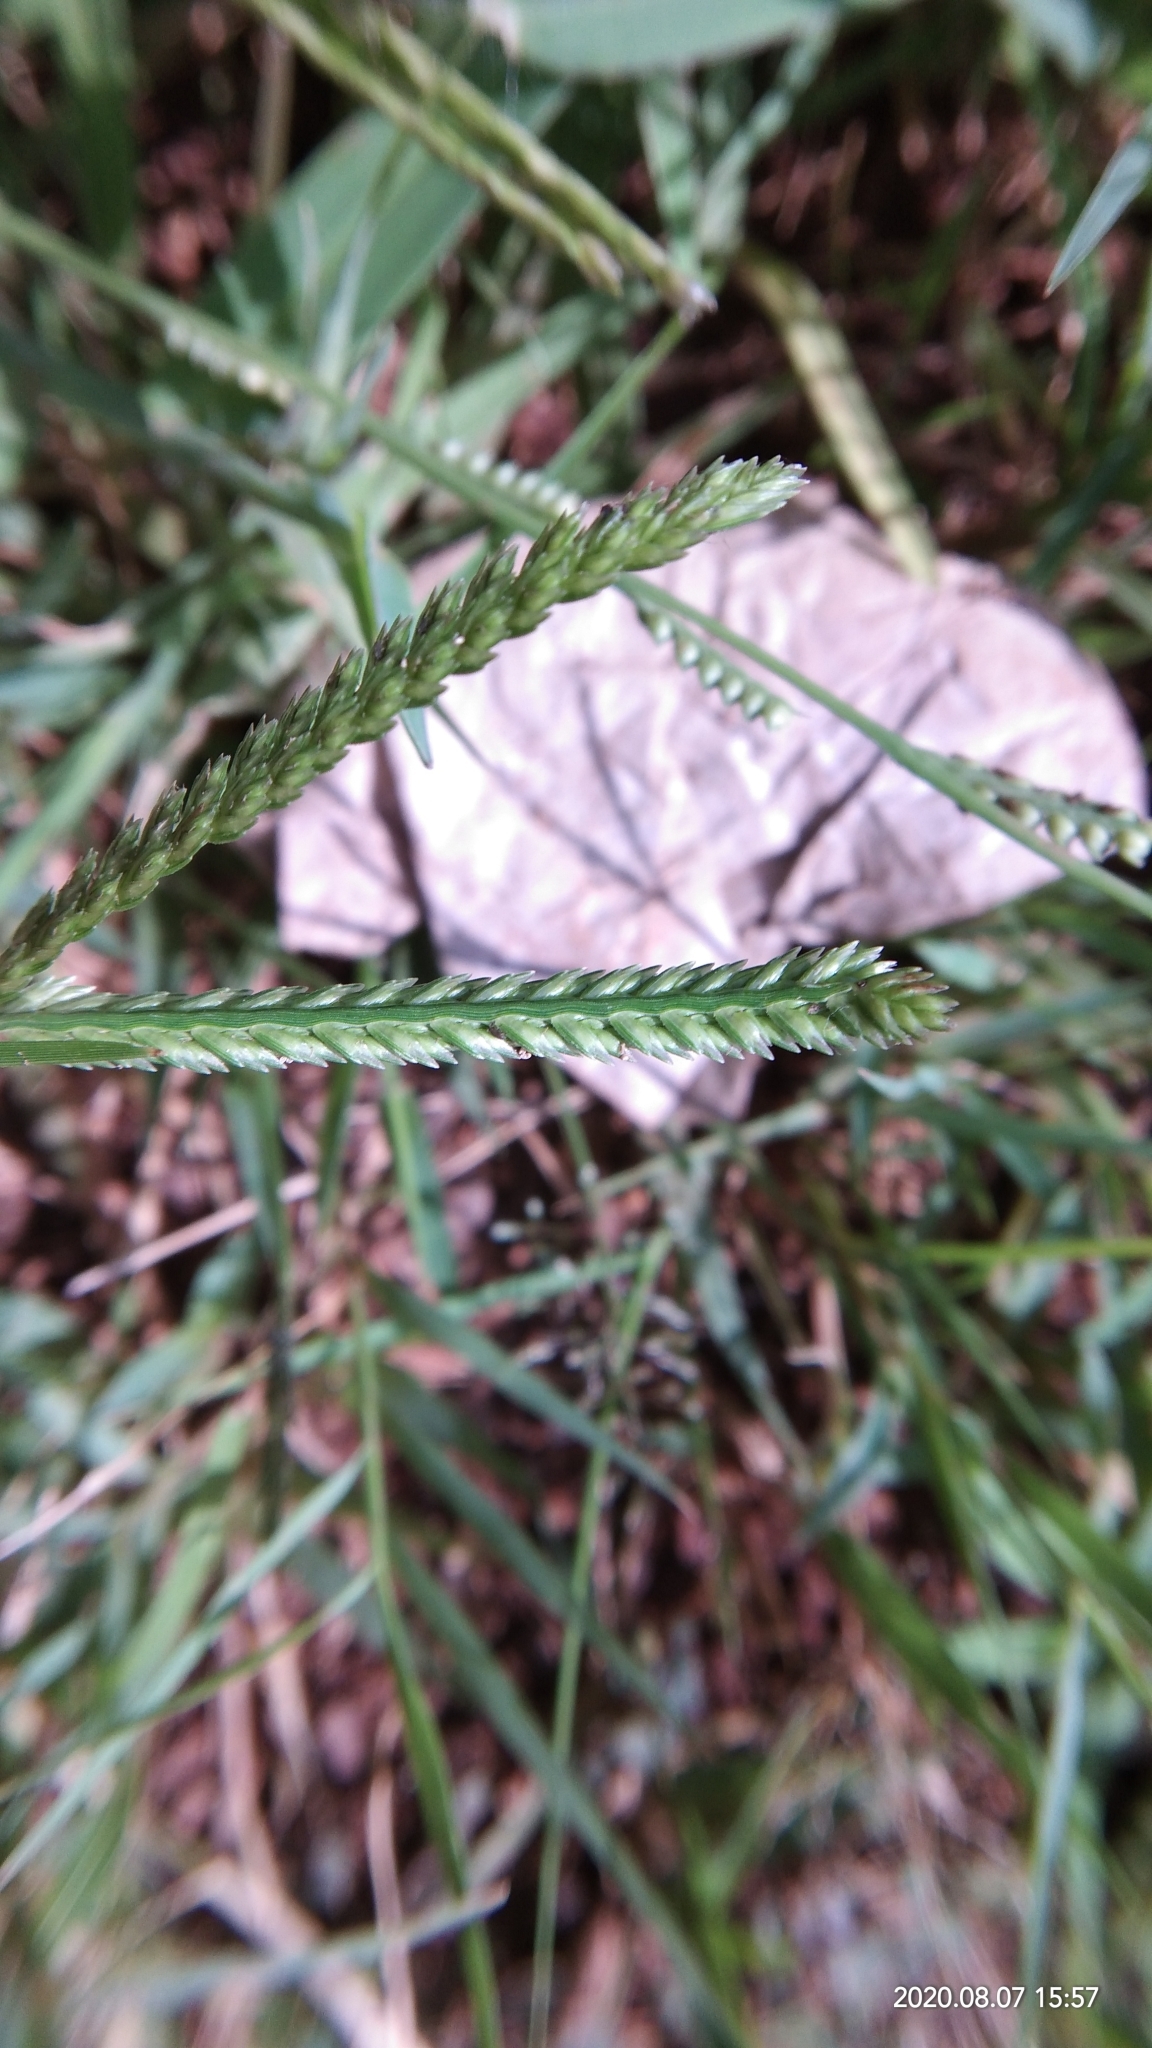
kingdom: Plantae
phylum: Tracheophyta
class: Liliopsida
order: Poales
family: Poaceae
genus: Eleusine
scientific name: Eleusine indica
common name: Yard-grass
